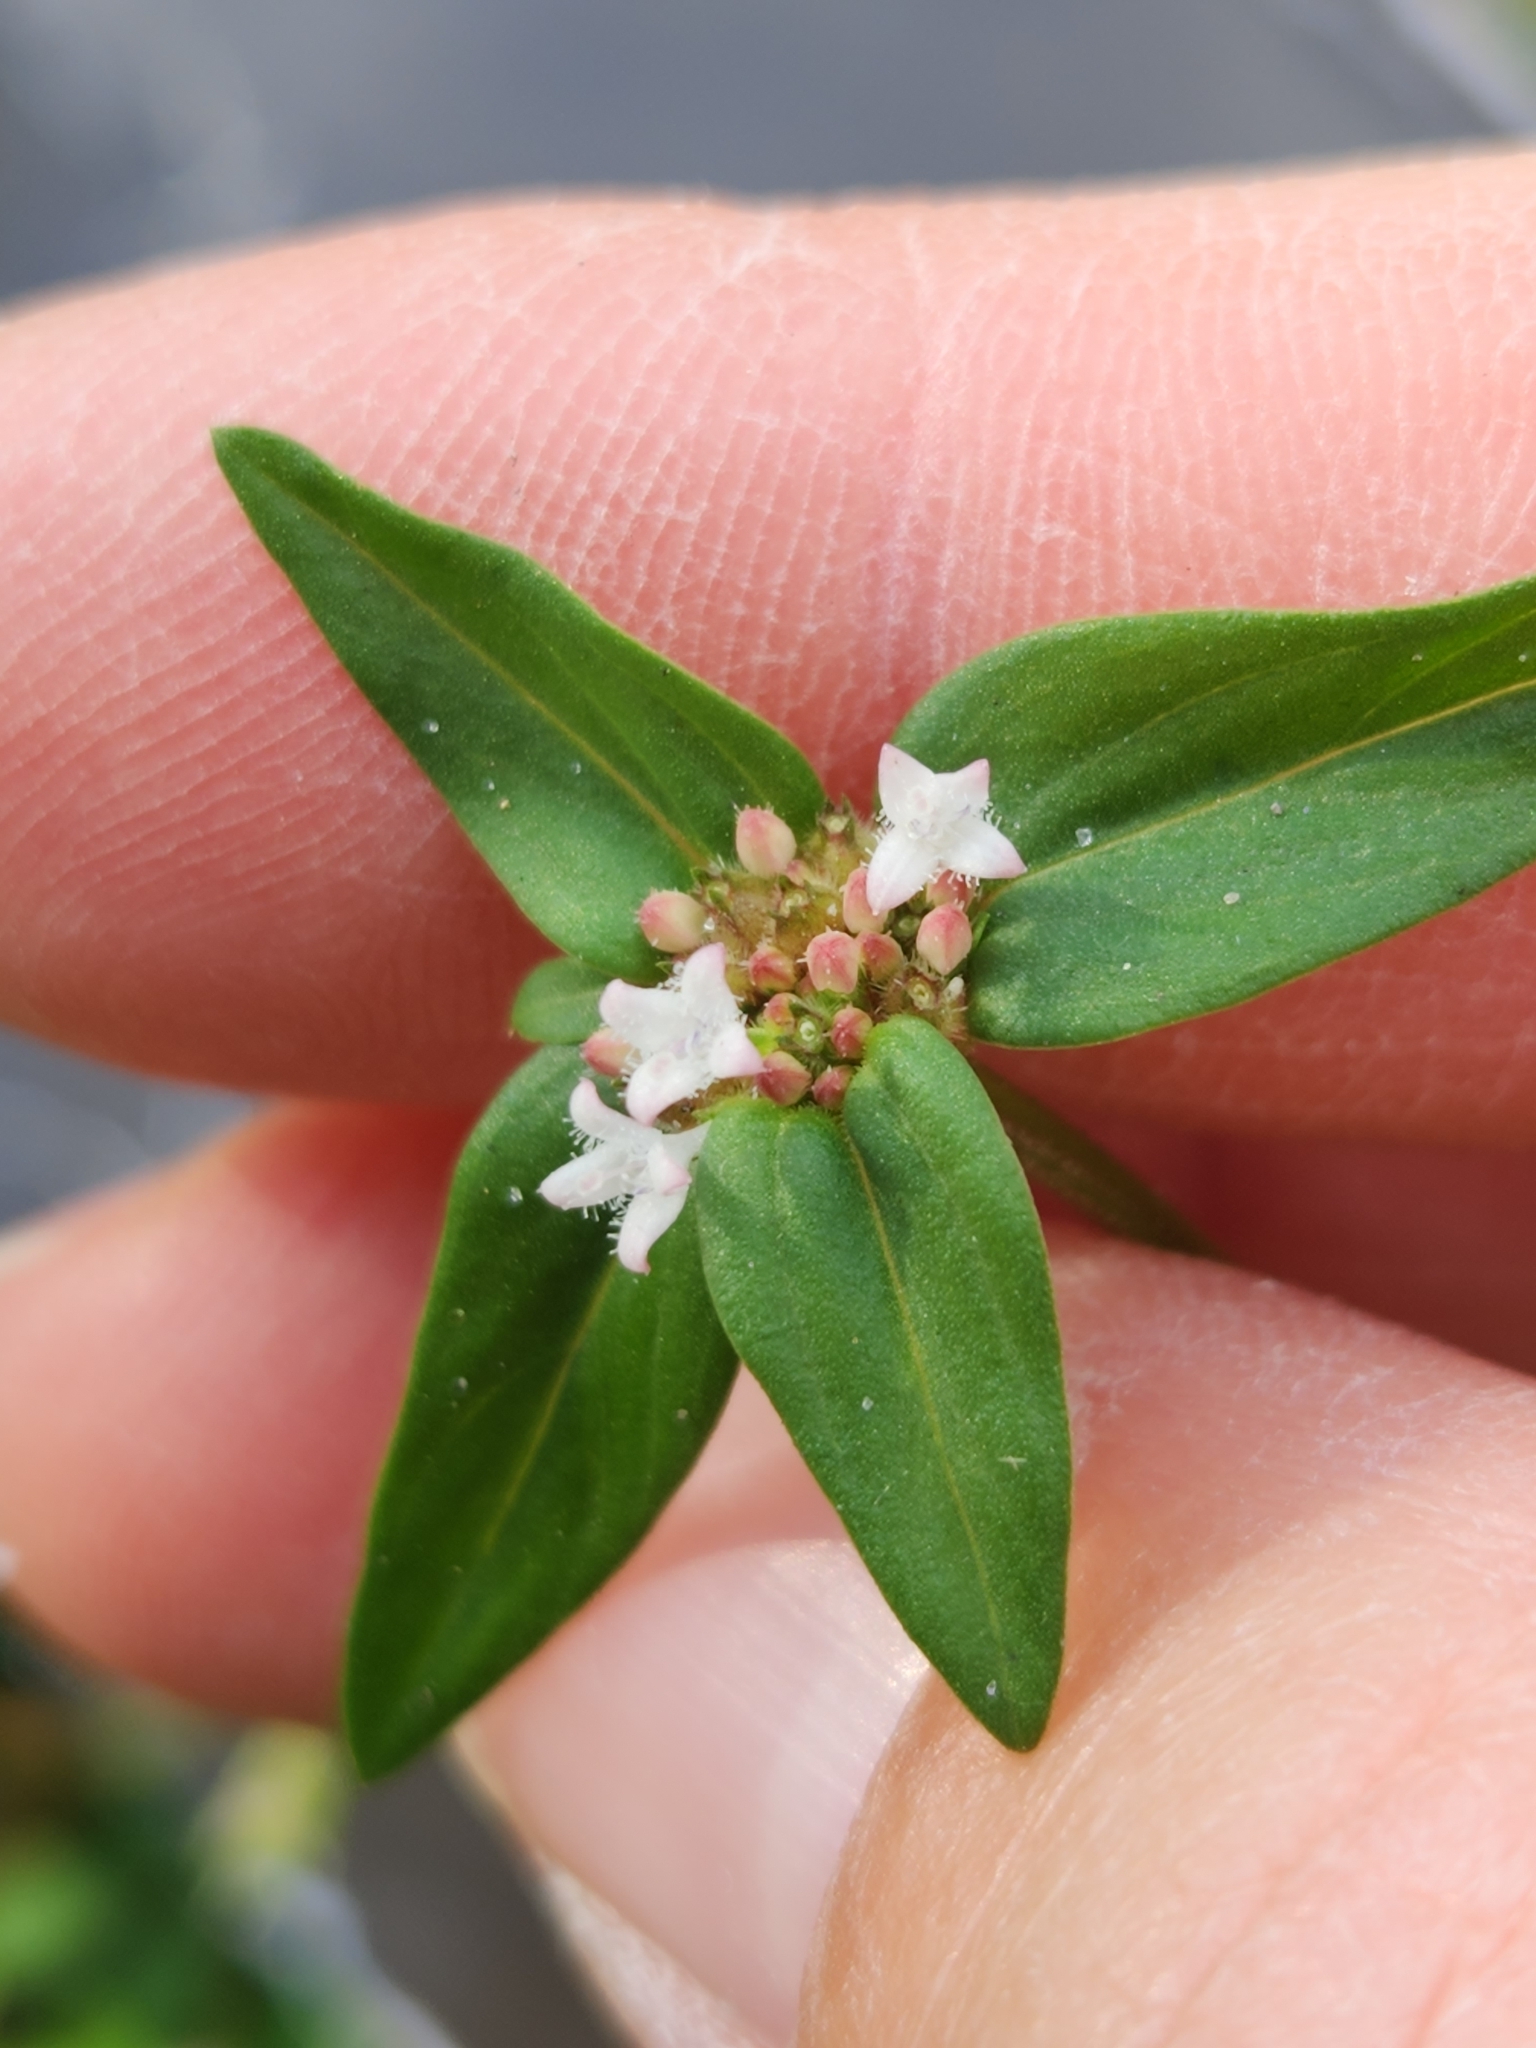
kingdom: Plantae
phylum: Tracheophyta
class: Magnoliopsida
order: Gentianales
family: Rubiaceae
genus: Spermacoce
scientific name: Spermacoce remota
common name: Woodland false buttonweed
